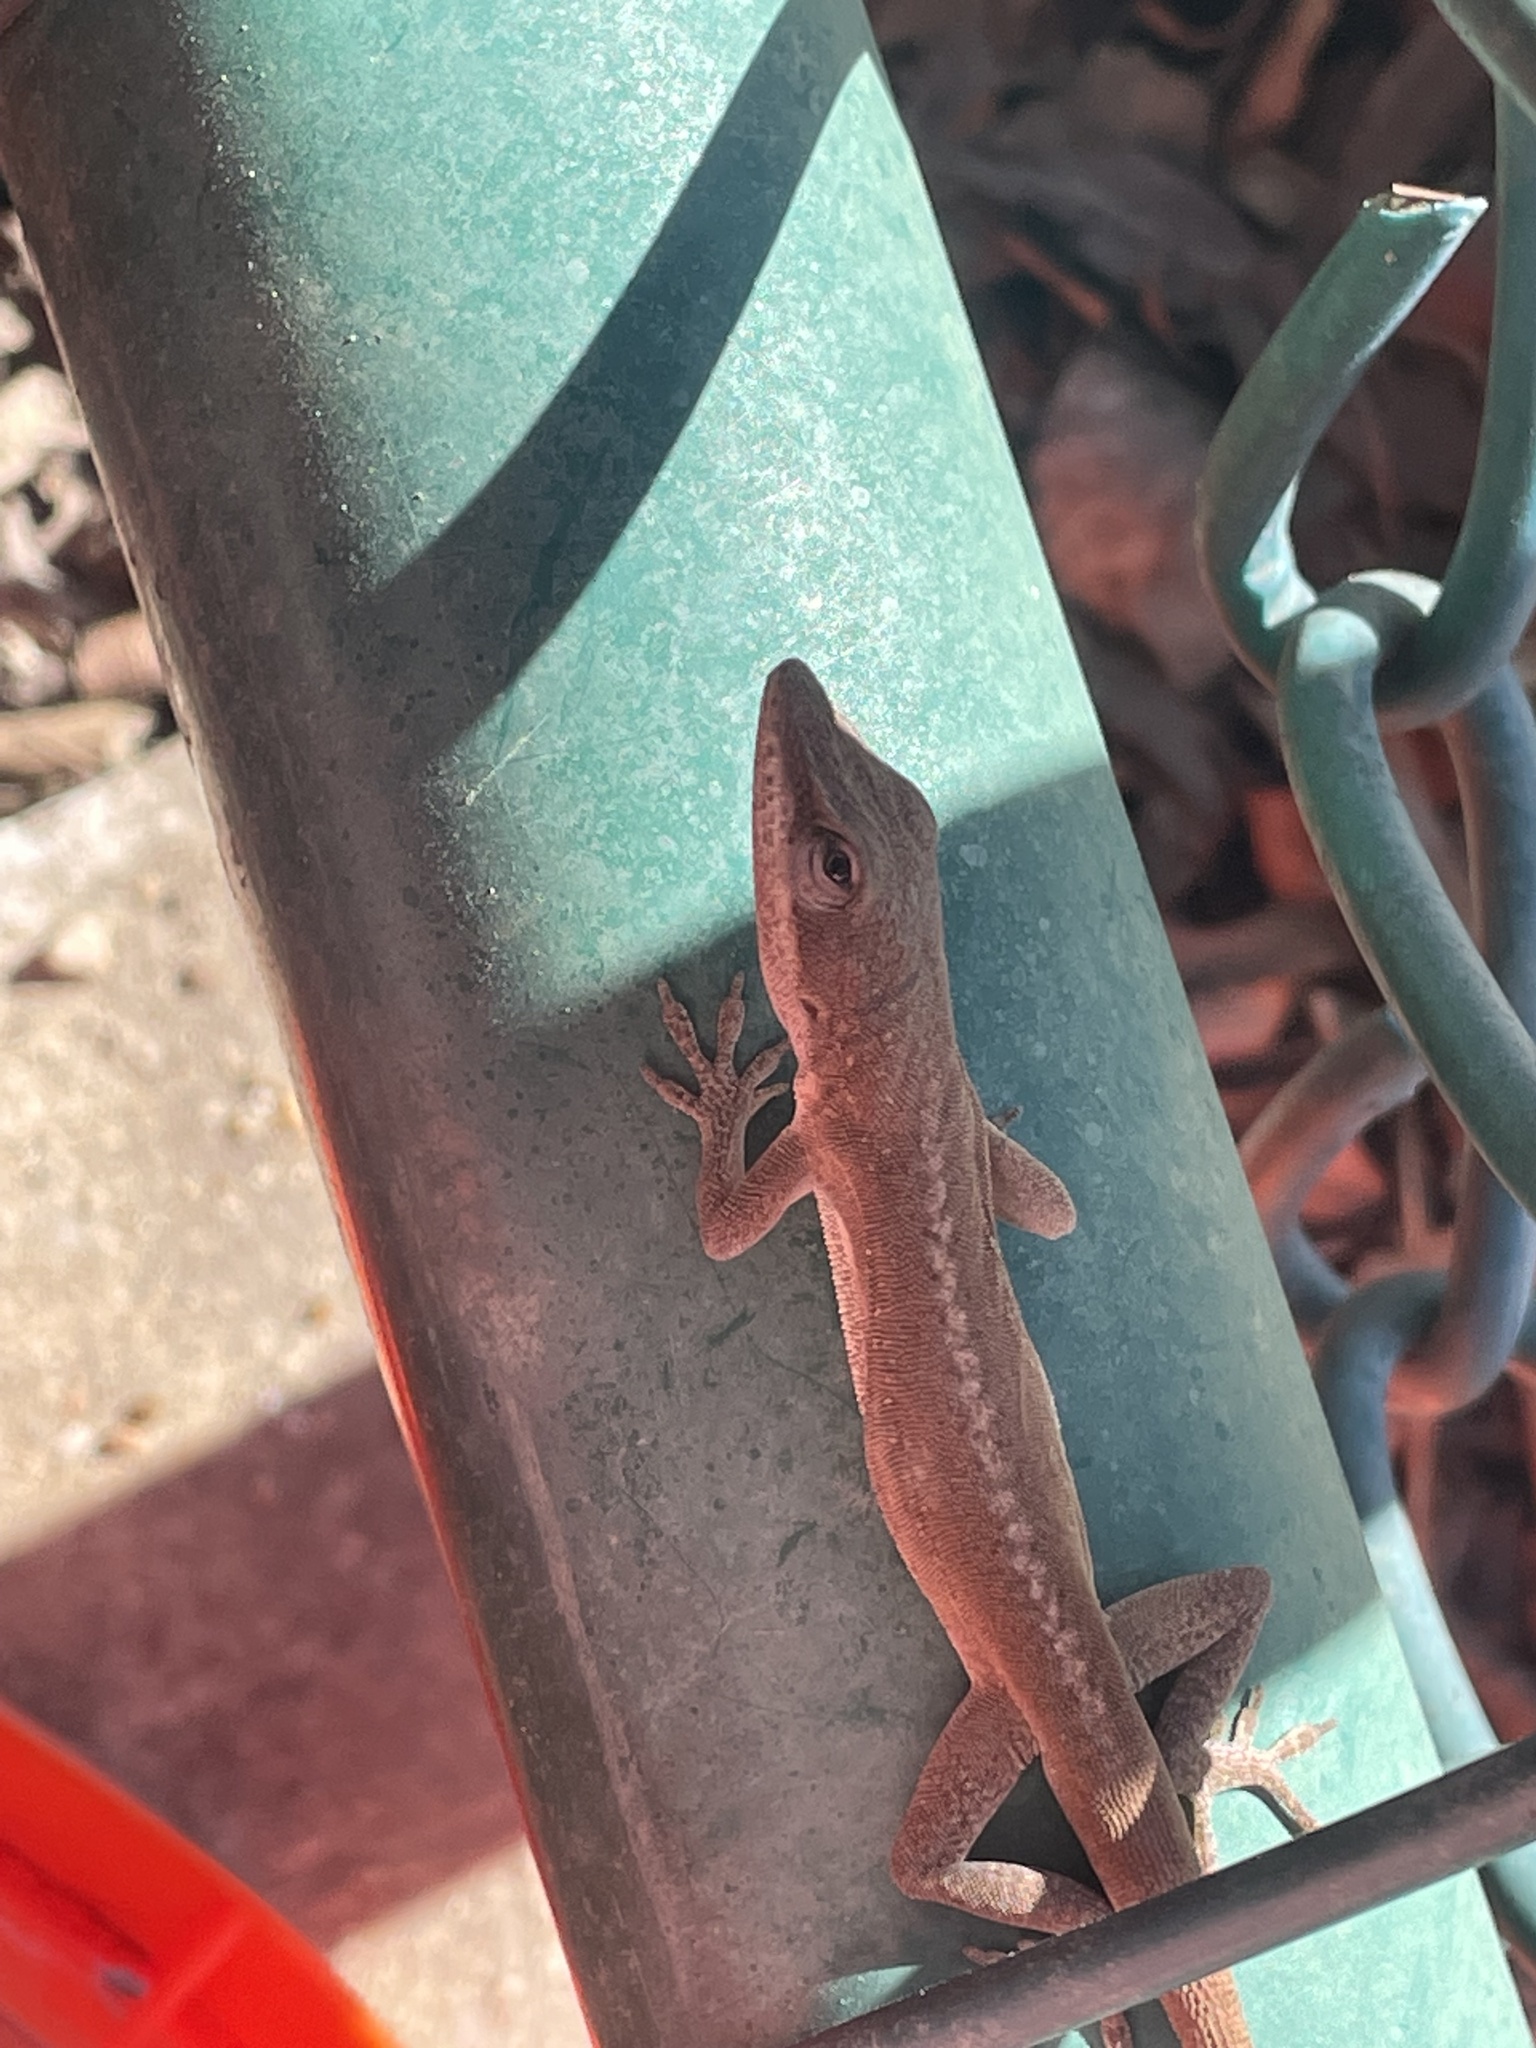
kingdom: Animalia
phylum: Chordata
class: Squamata
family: Dactyloidae
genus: Anolis
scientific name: Anolis carolinensis
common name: Green anole
